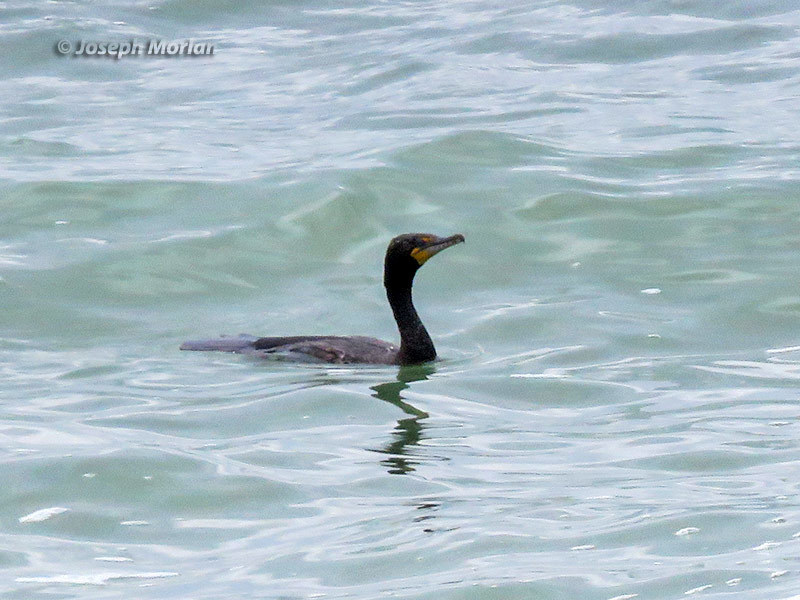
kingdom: Animalia
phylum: Chordata
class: Aves
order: Suliformes
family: Phalacrocoracidae
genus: Phalacrocorax
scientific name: Phalacrocorax auritus
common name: Double-crested cormorant
